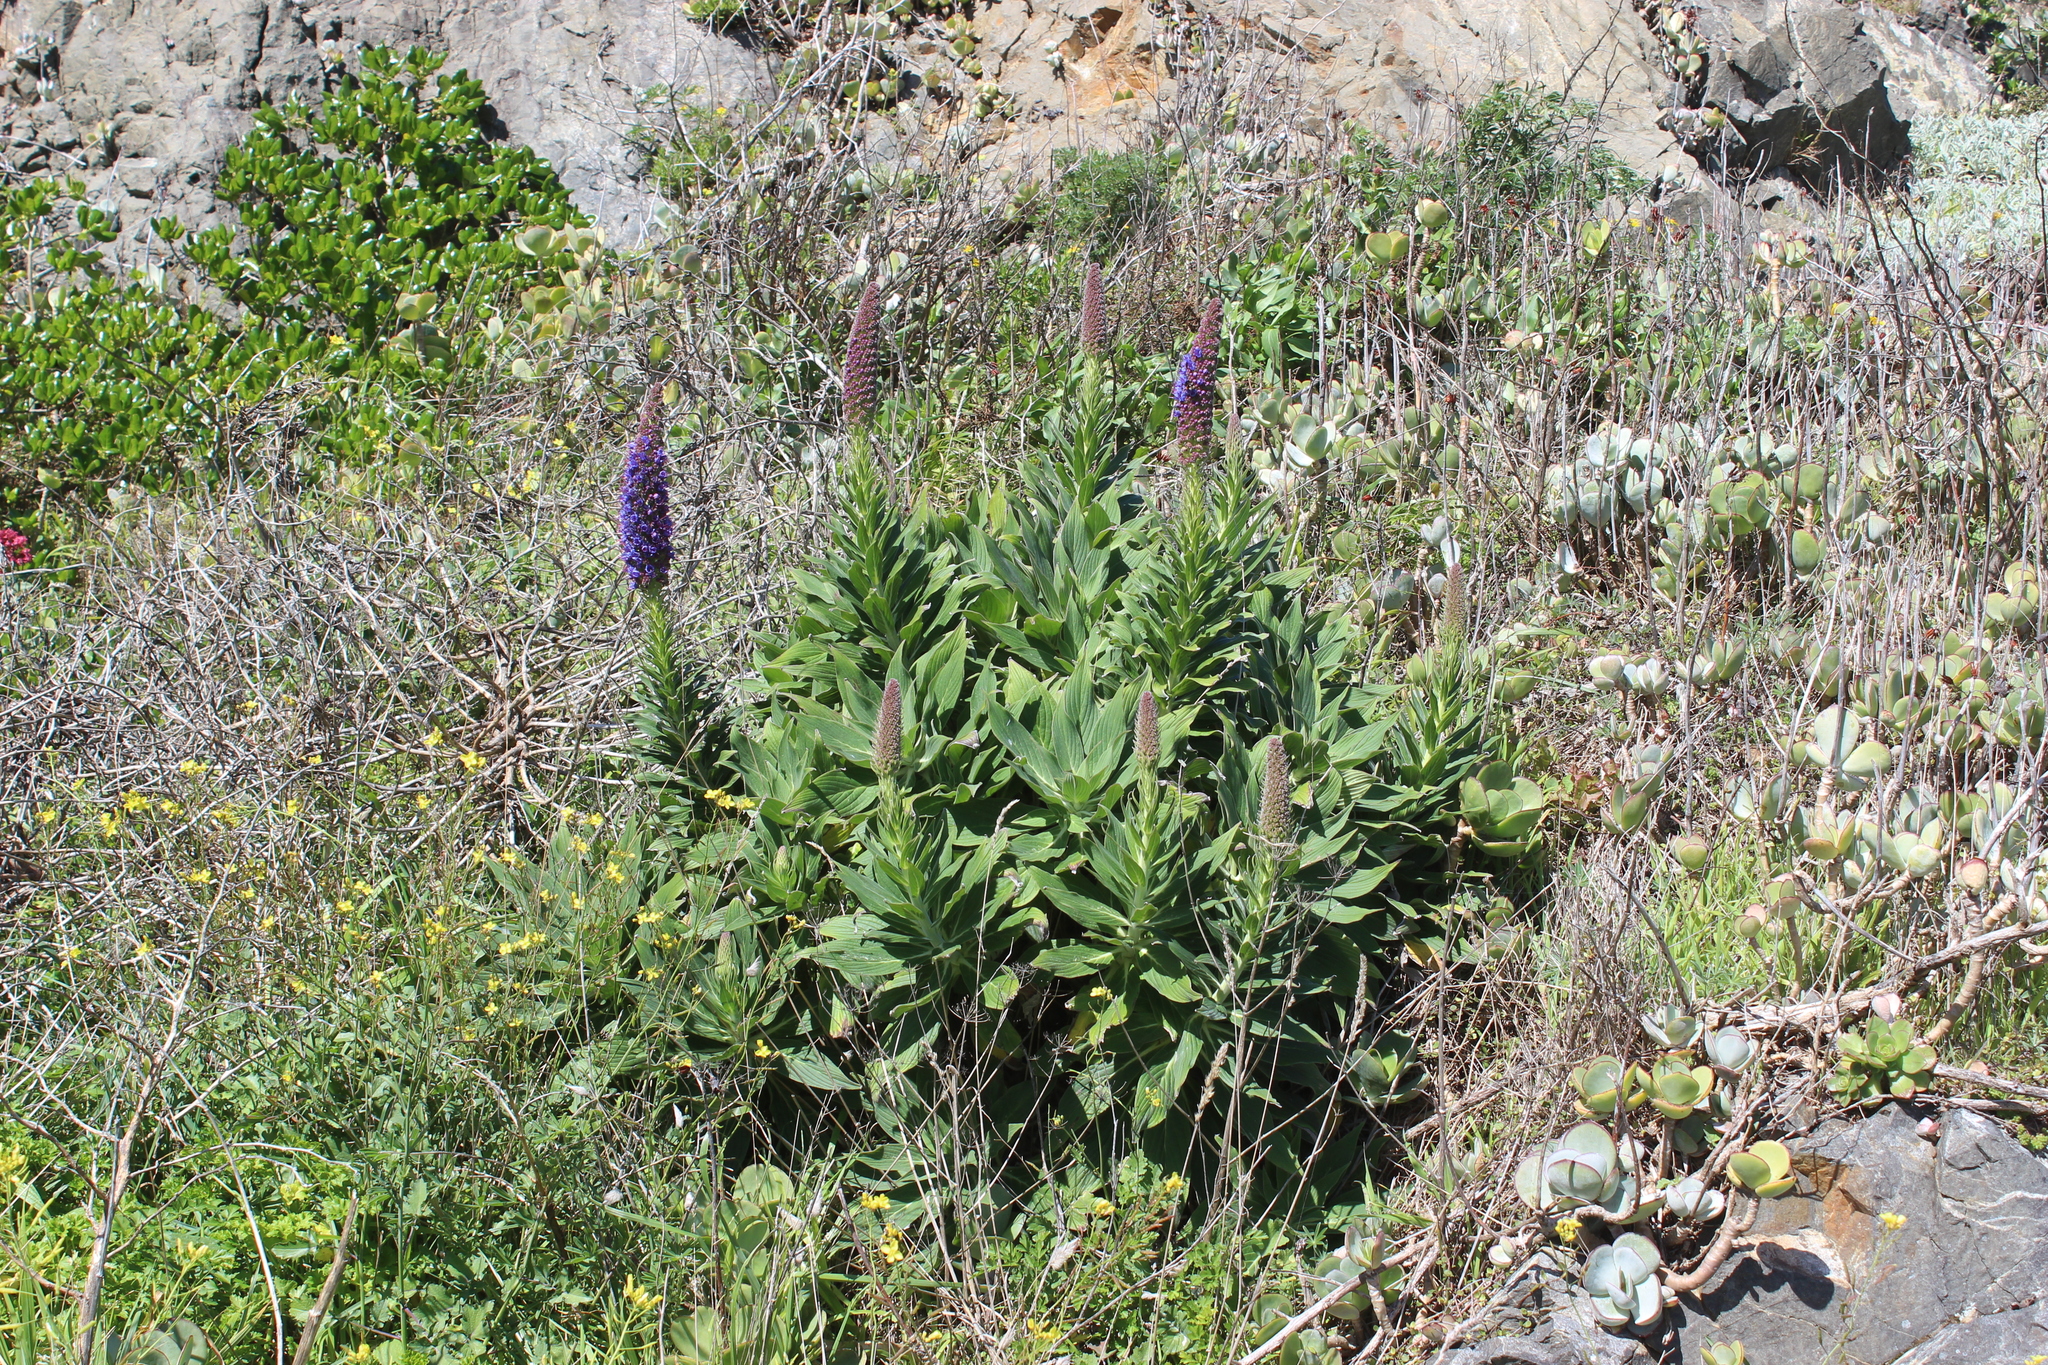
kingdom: Plantae
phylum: Tracheophyta
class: Magnoliopsida
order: Boraginales
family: Boraginaceae
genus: Echium
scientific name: Echium candicans
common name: Pride of madeira
